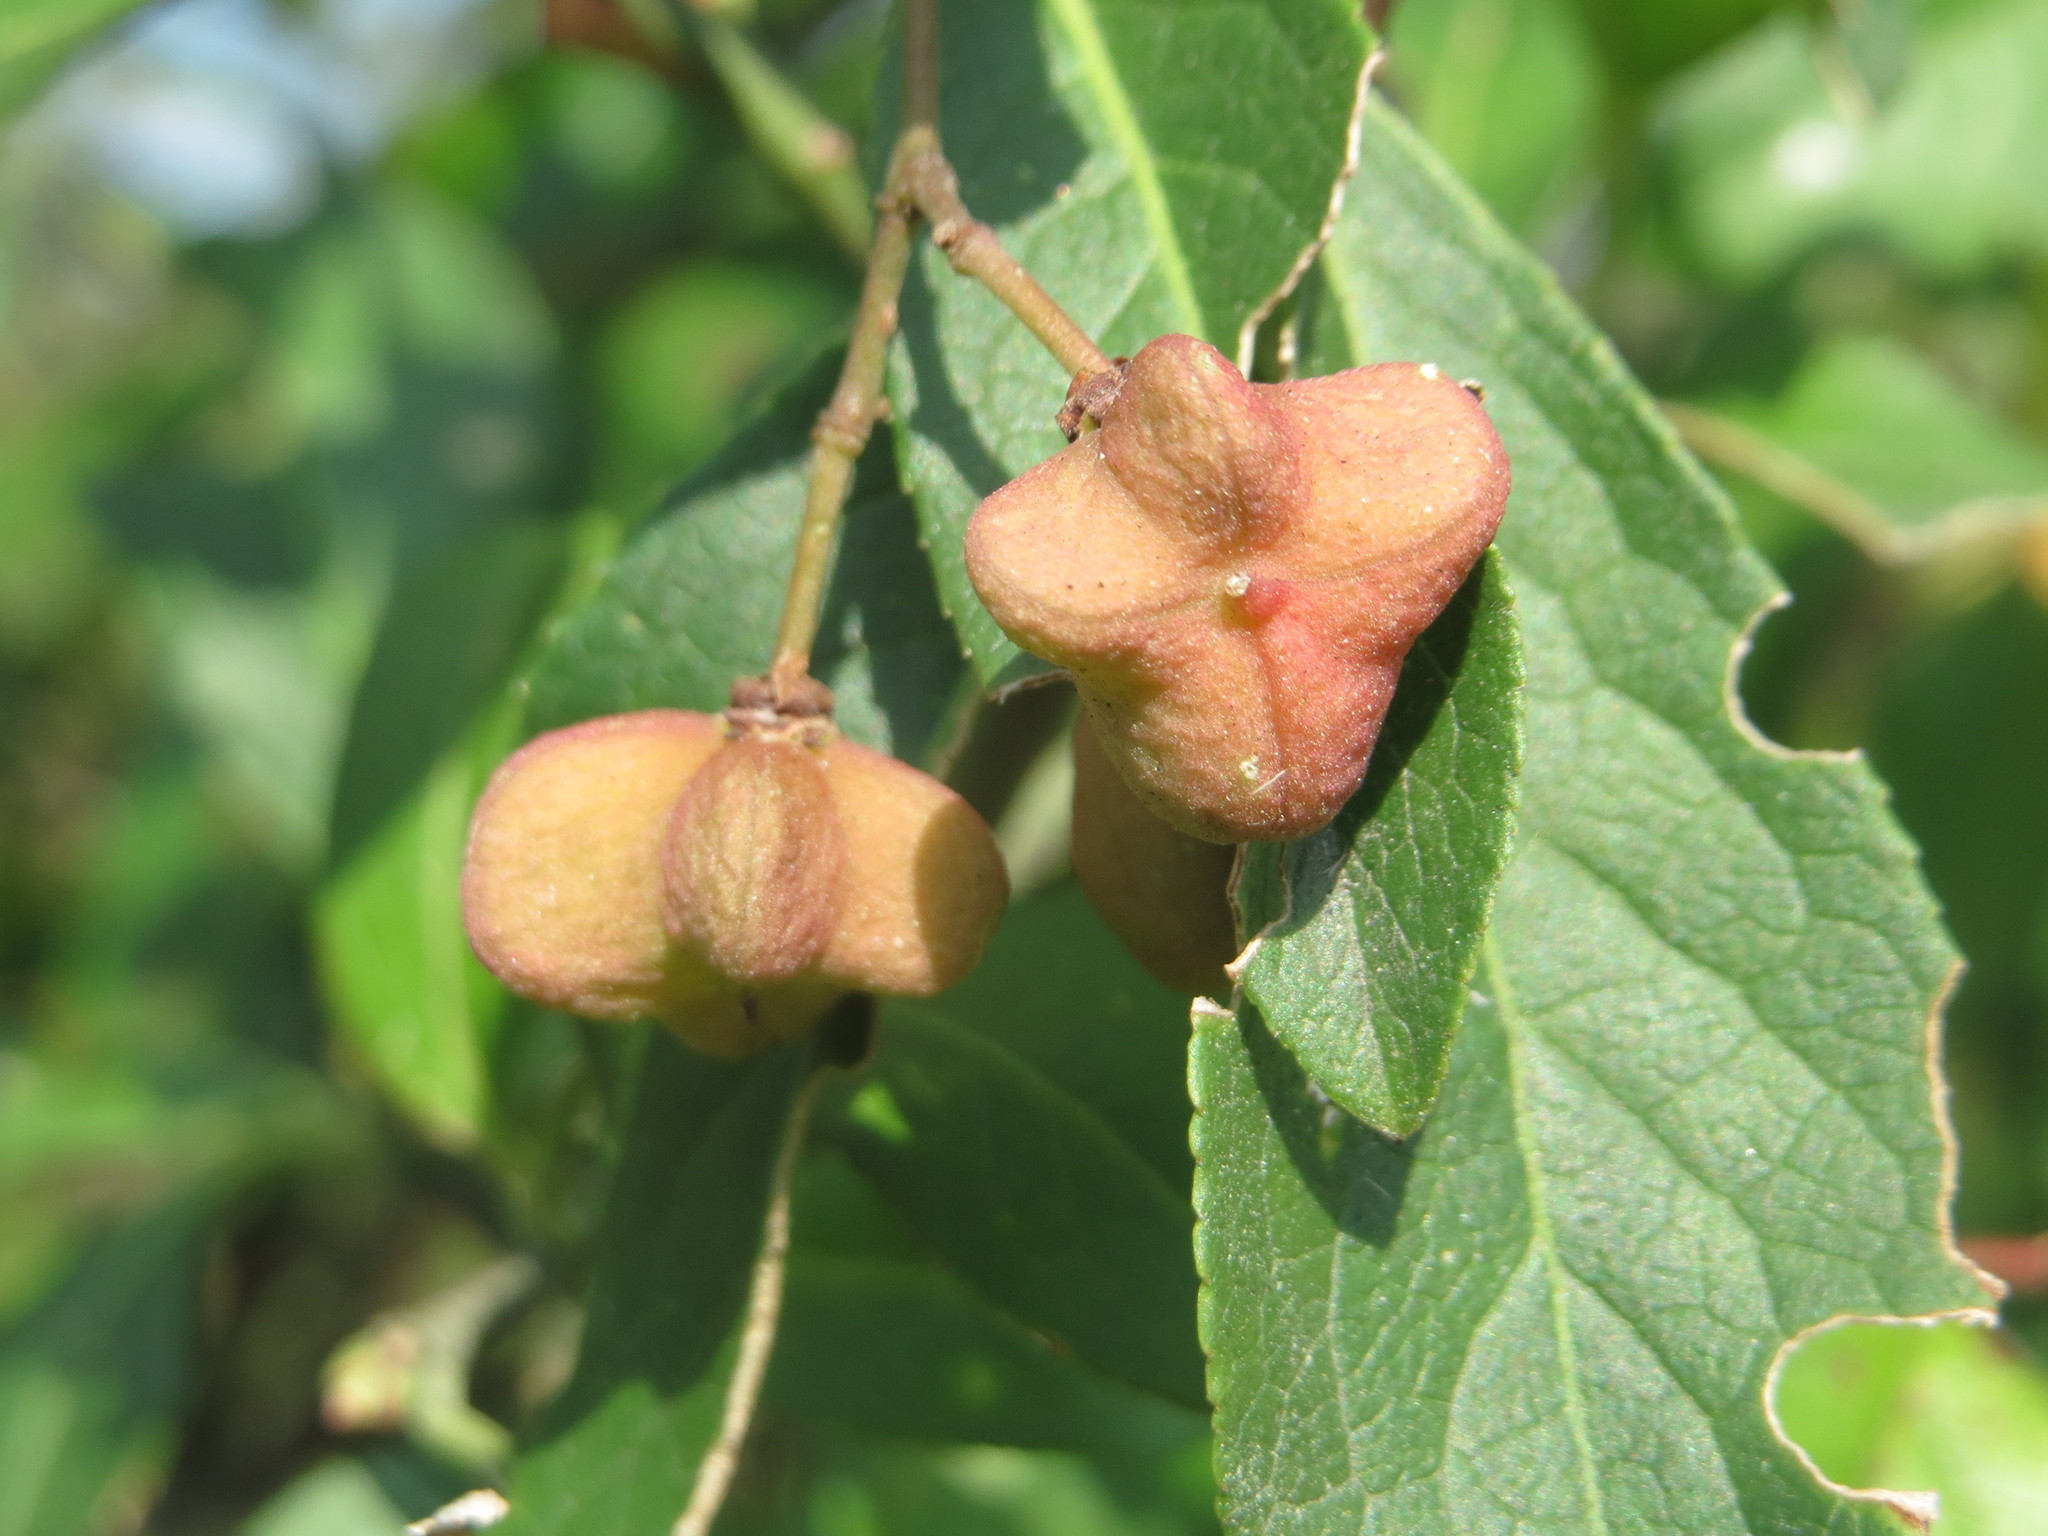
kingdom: Plantae
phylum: Tracheophyta
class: Magnoliopsida
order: Celastrales
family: Celastraceae
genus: Euonymus
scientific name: Euonymus europaeus
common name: Spindle
